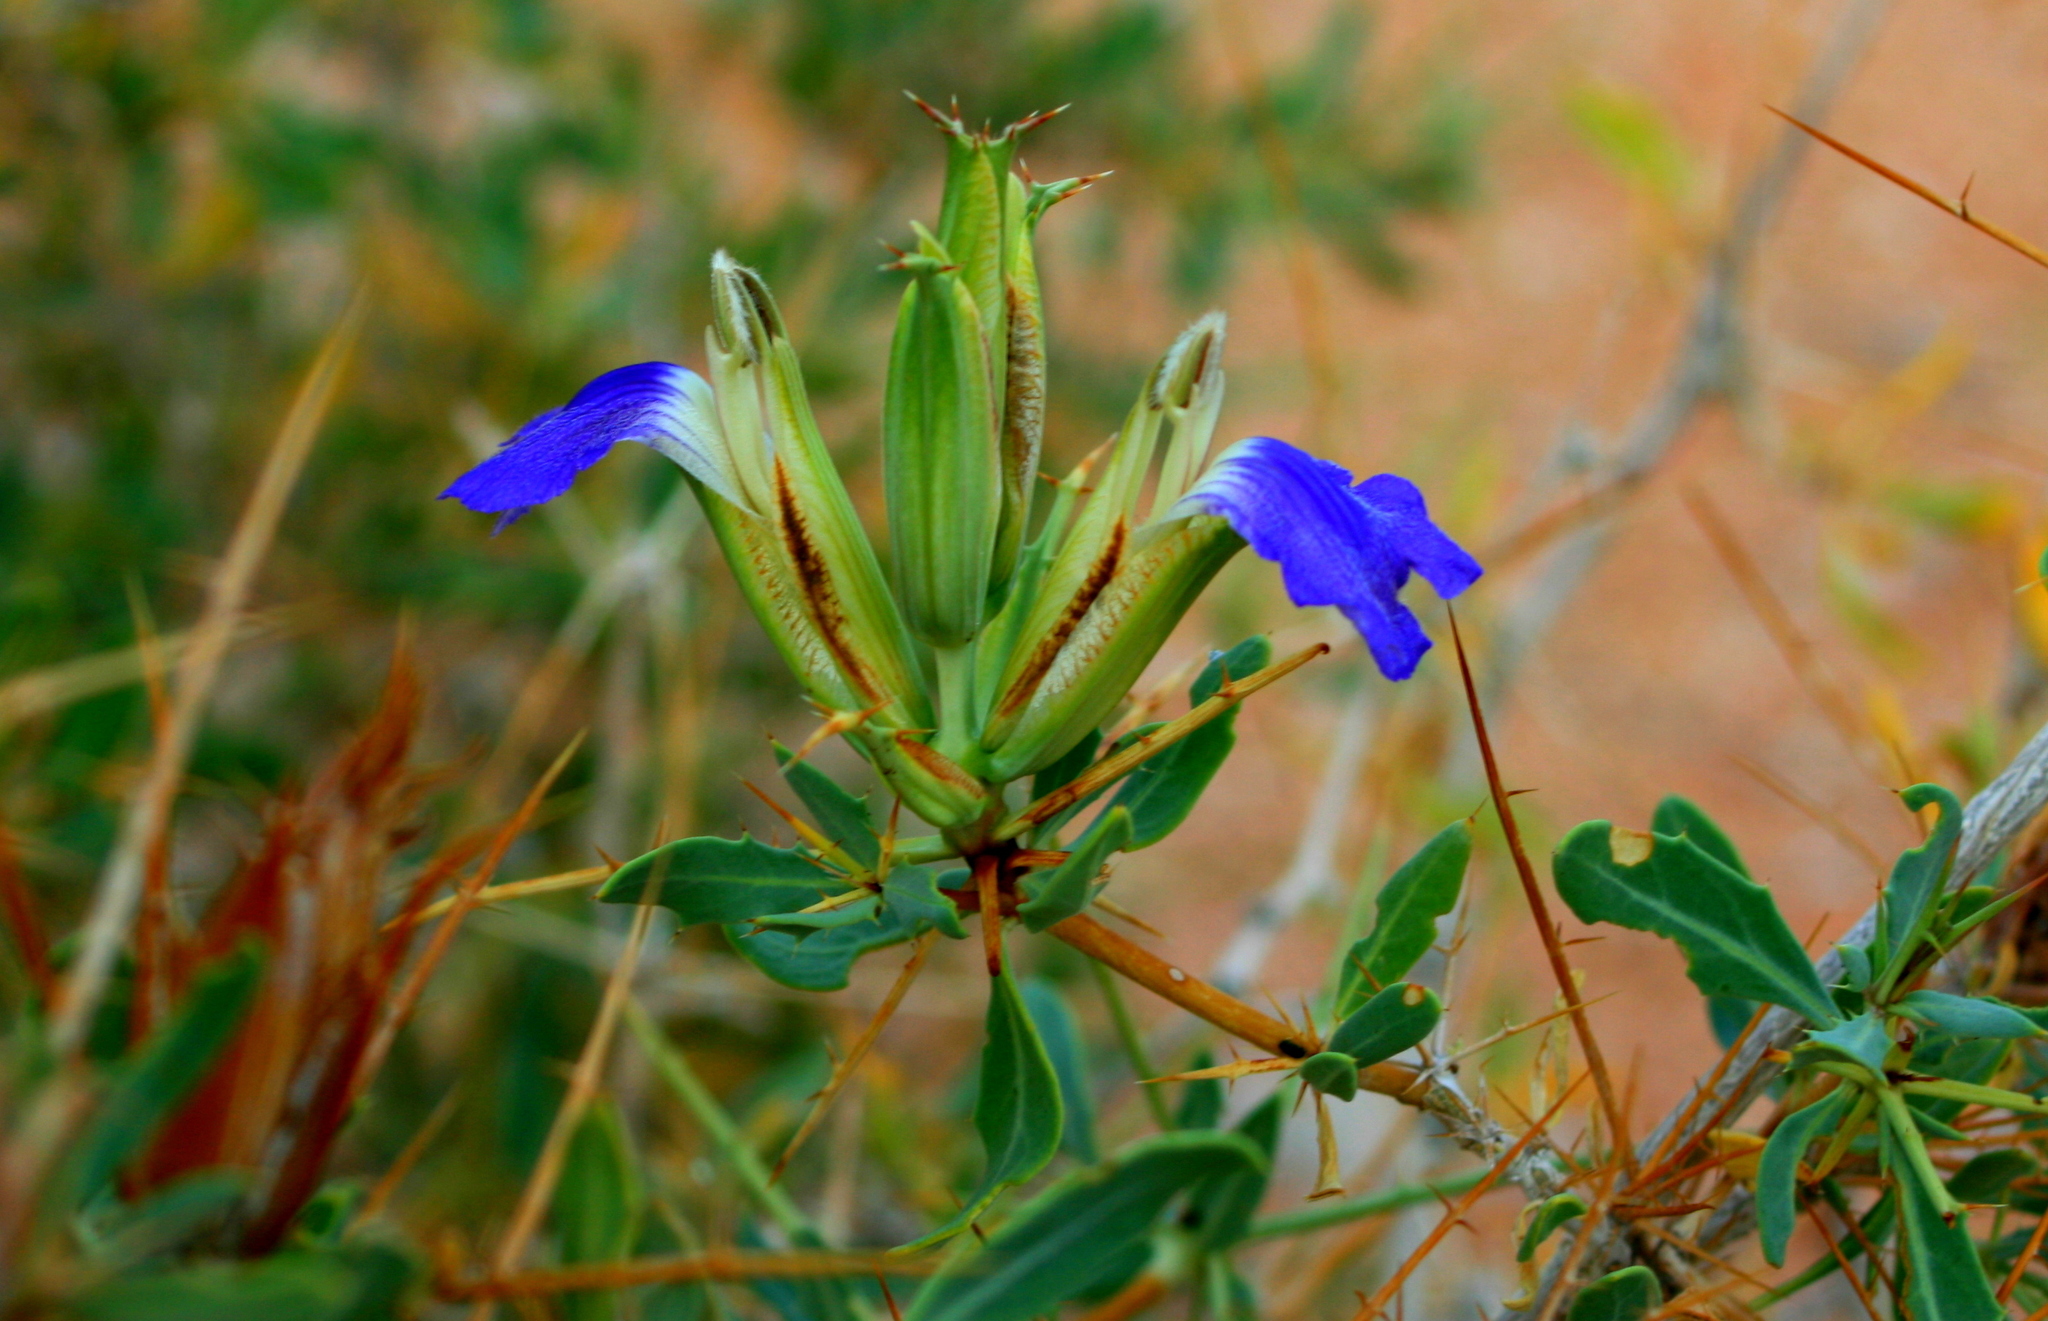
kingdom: Plantae
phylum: Tracheophyta
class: Magnoliopsida
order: Lamiales
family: Acanthaceae
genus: Blepharis
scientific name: Blepharis gigantea
